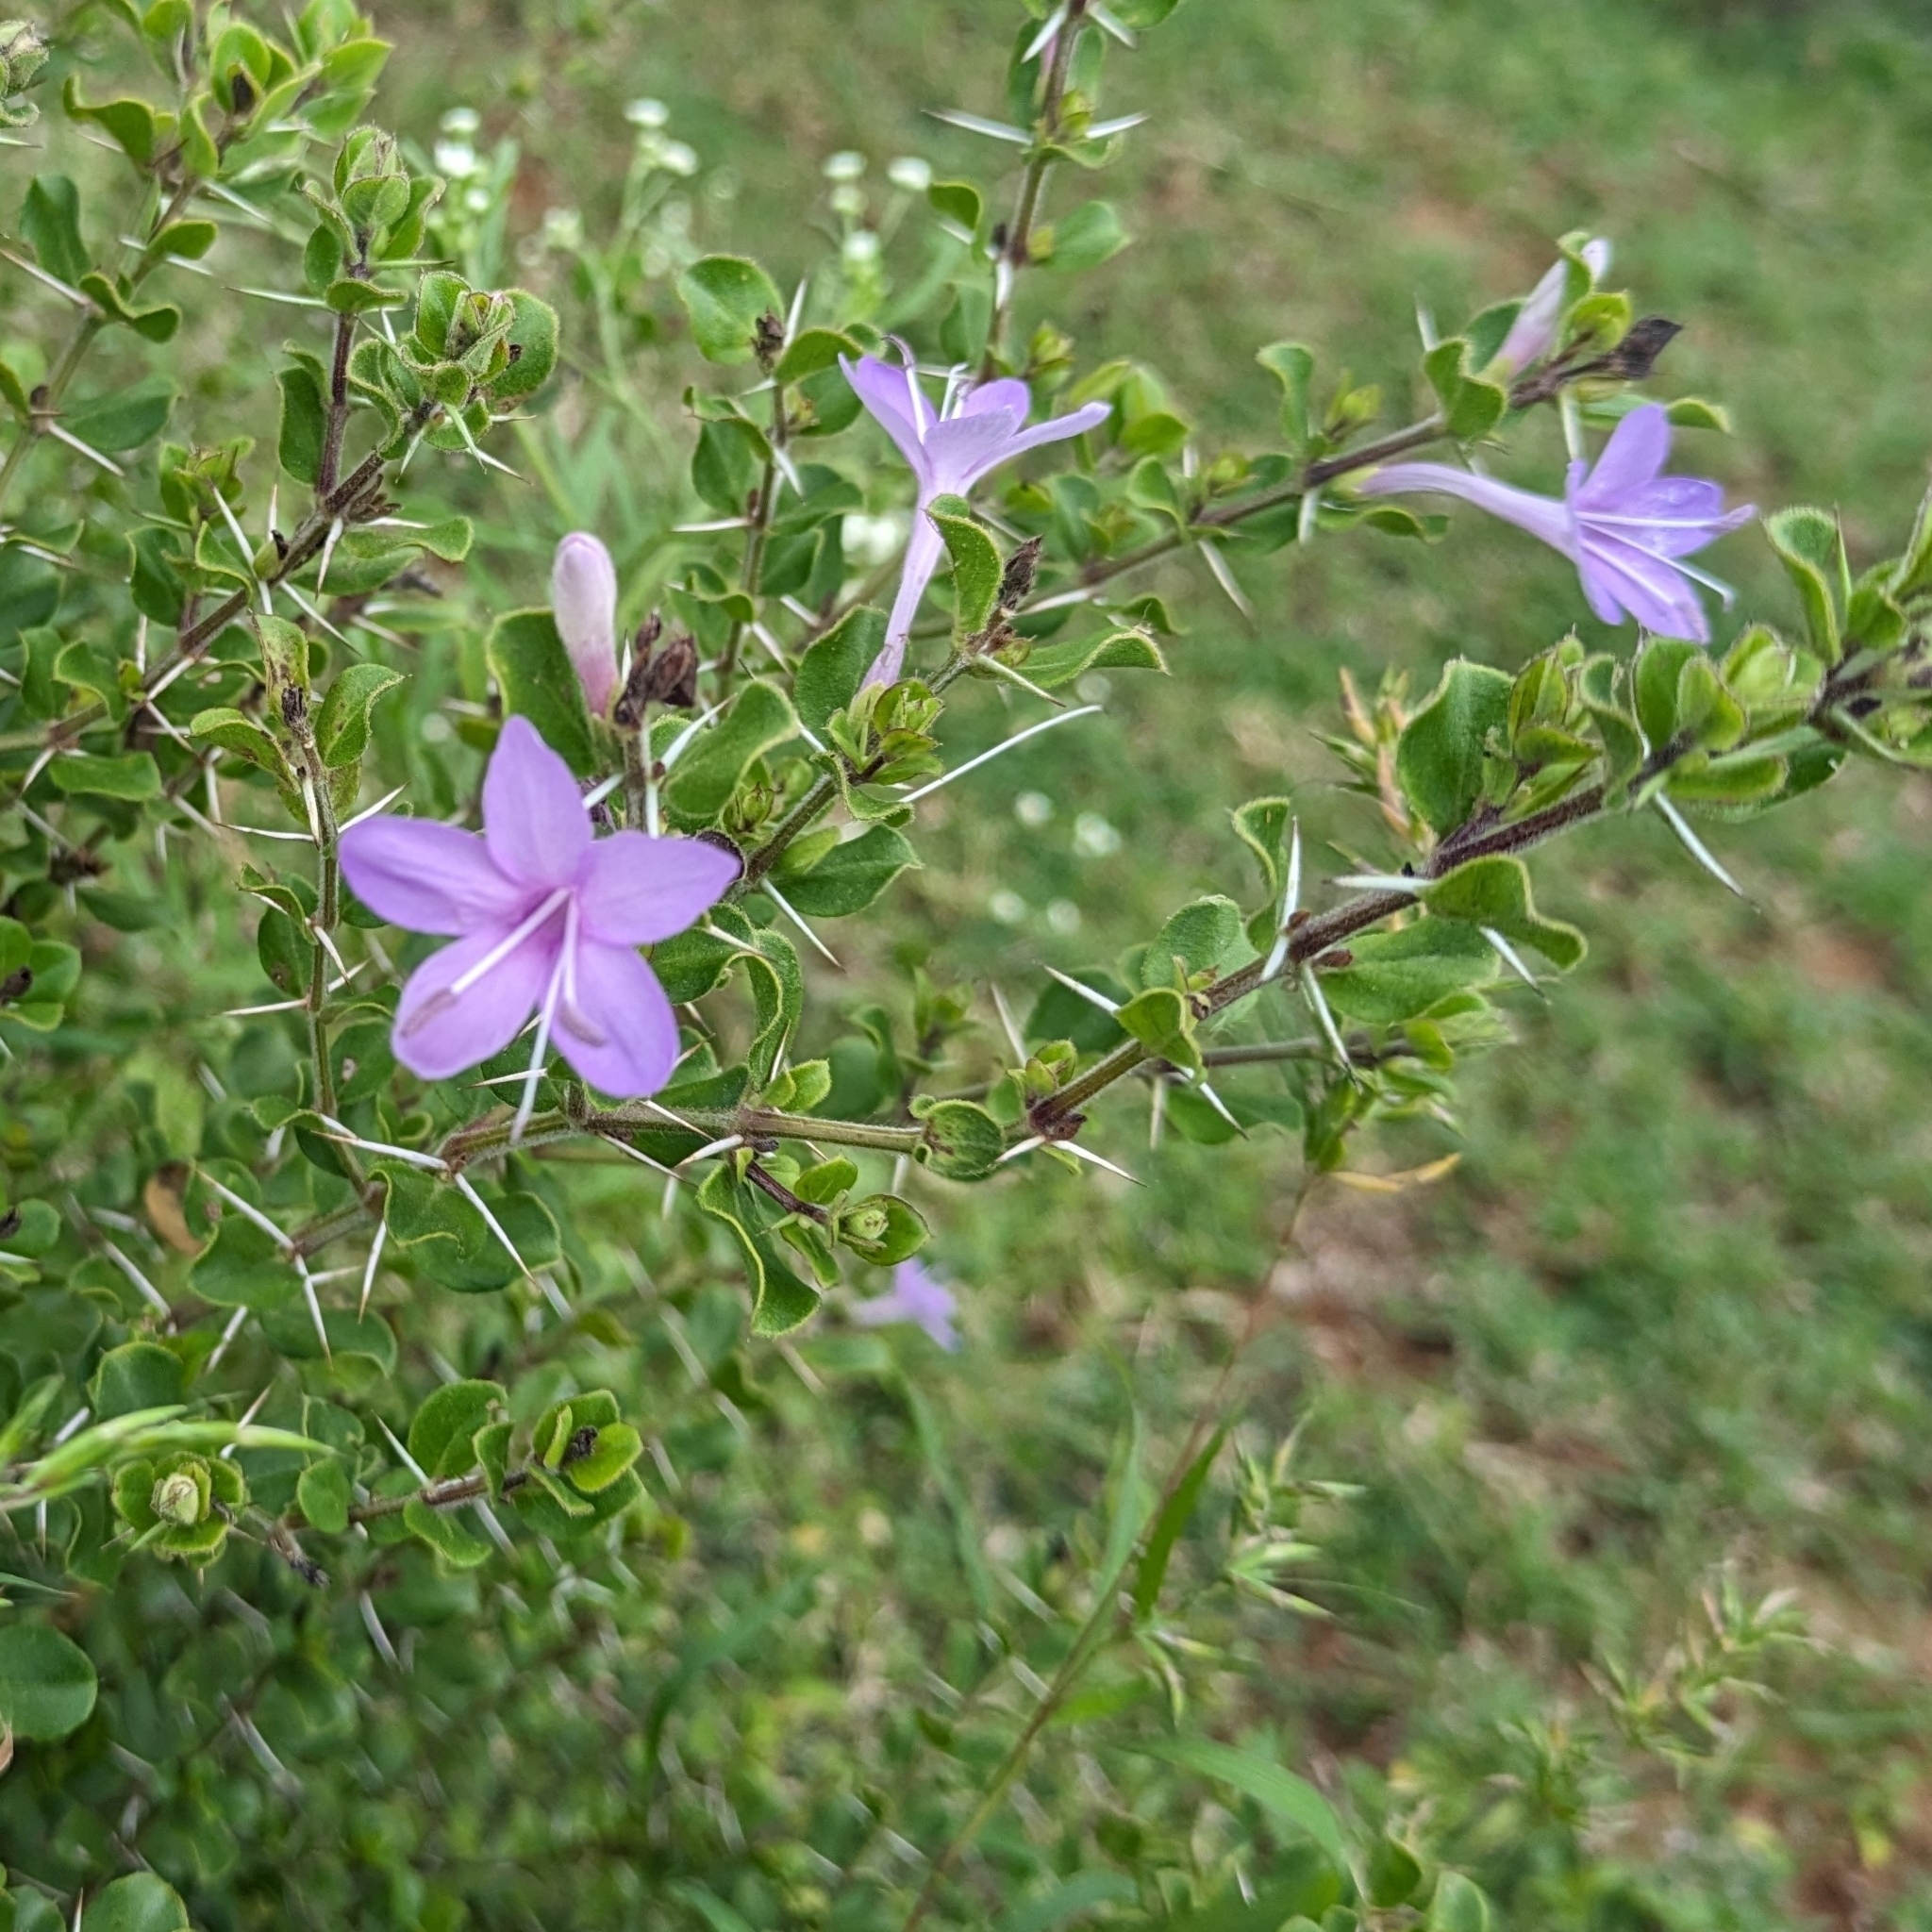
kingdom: Plantae
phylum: Tracheophyta
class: Magnoliopsida
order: Lamiales
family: Acanthaceae
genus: Barleria
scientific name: Barleria mysorensis
